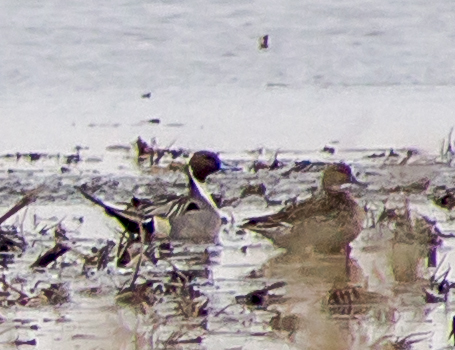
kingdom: Animalia
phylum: Chordata
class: Aves
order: Anseriformes
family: Anatidae
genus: Anas
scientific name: Anas acuta
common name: Northern pintail
